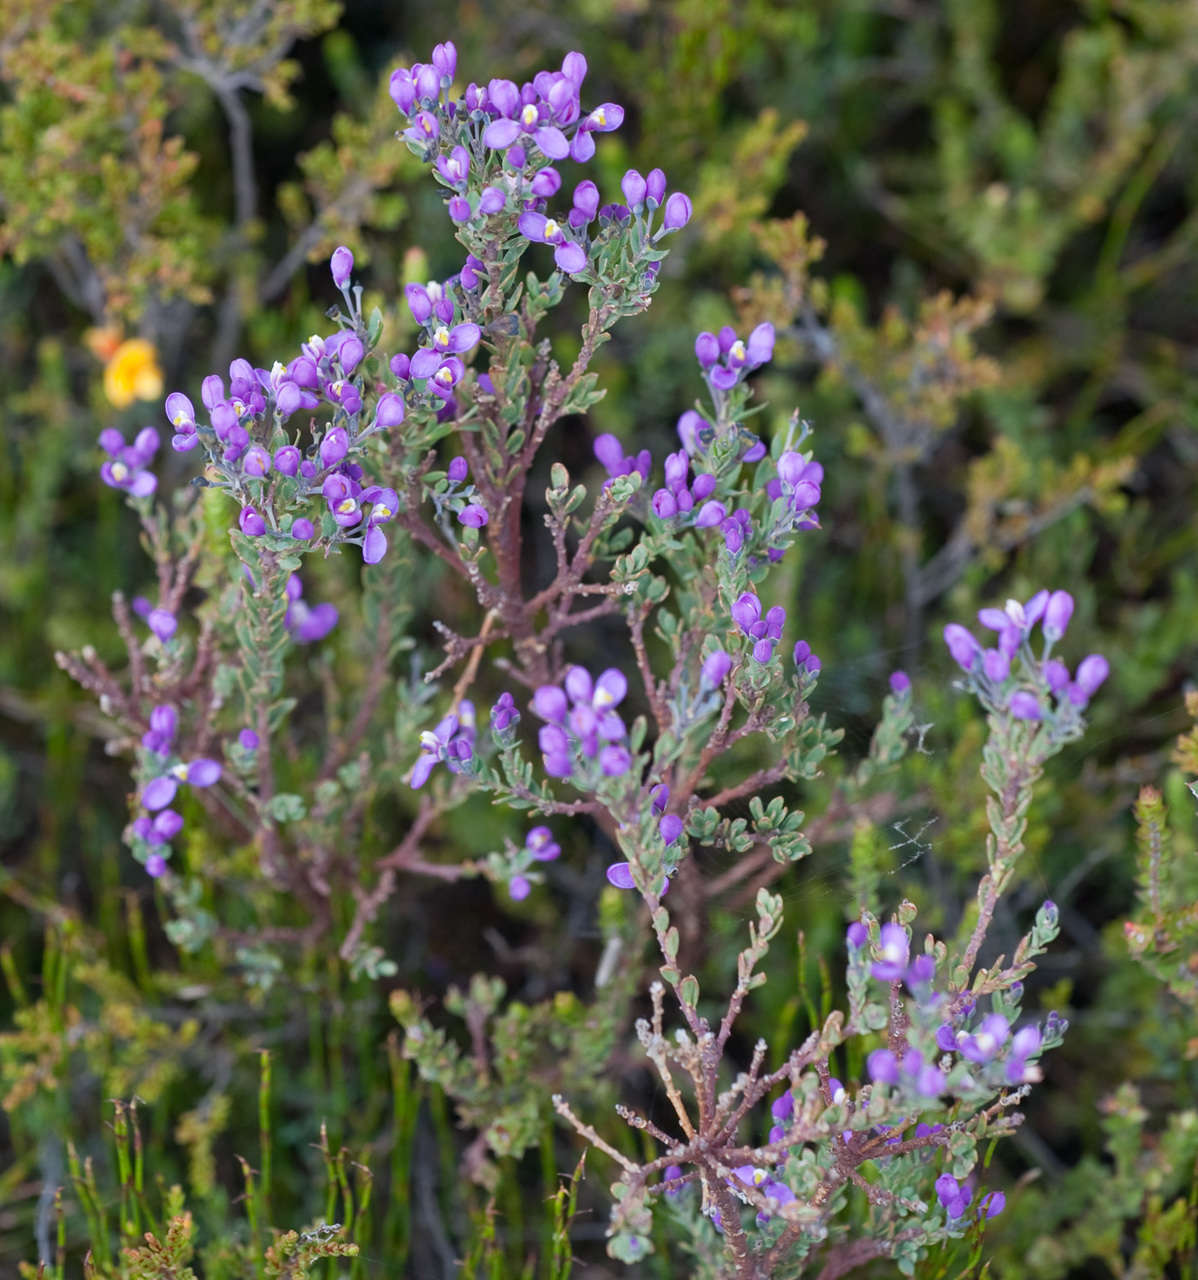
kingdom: Plantae
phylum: Tracheophyta
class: Magnoliopsida
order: Fabales
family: Polygalaceae
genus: Comesperma
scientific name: Comesperma retusum
